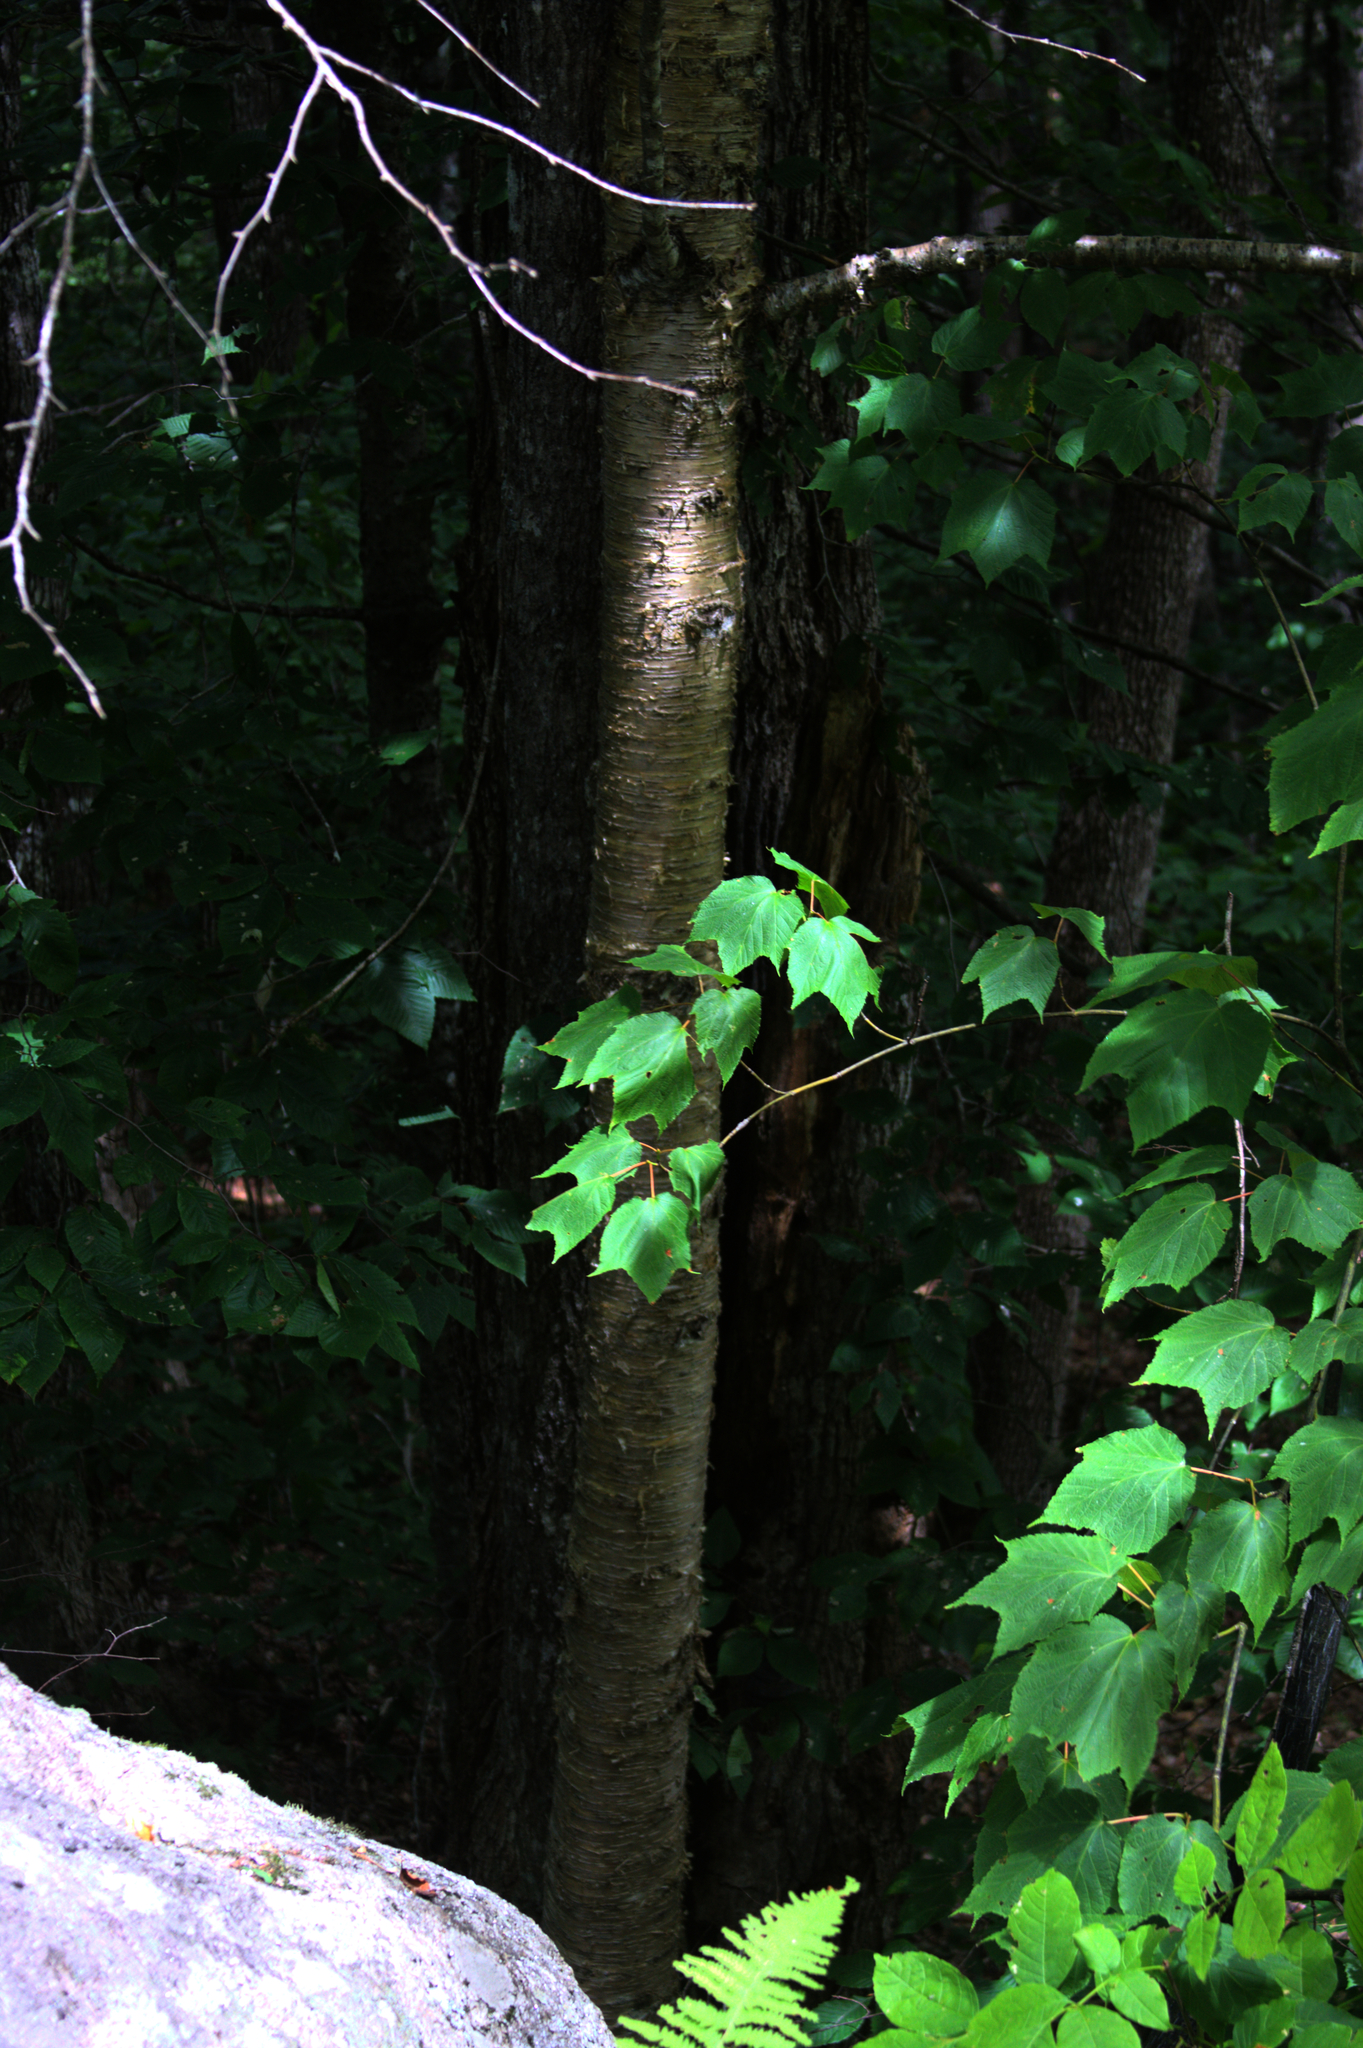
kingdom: Plantae
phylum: Tracheophyta
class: Magnoliopsida
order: Fagales
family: Betulaceae
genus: Betula
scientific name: Betula alleghaniensis
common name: Yellow birch
